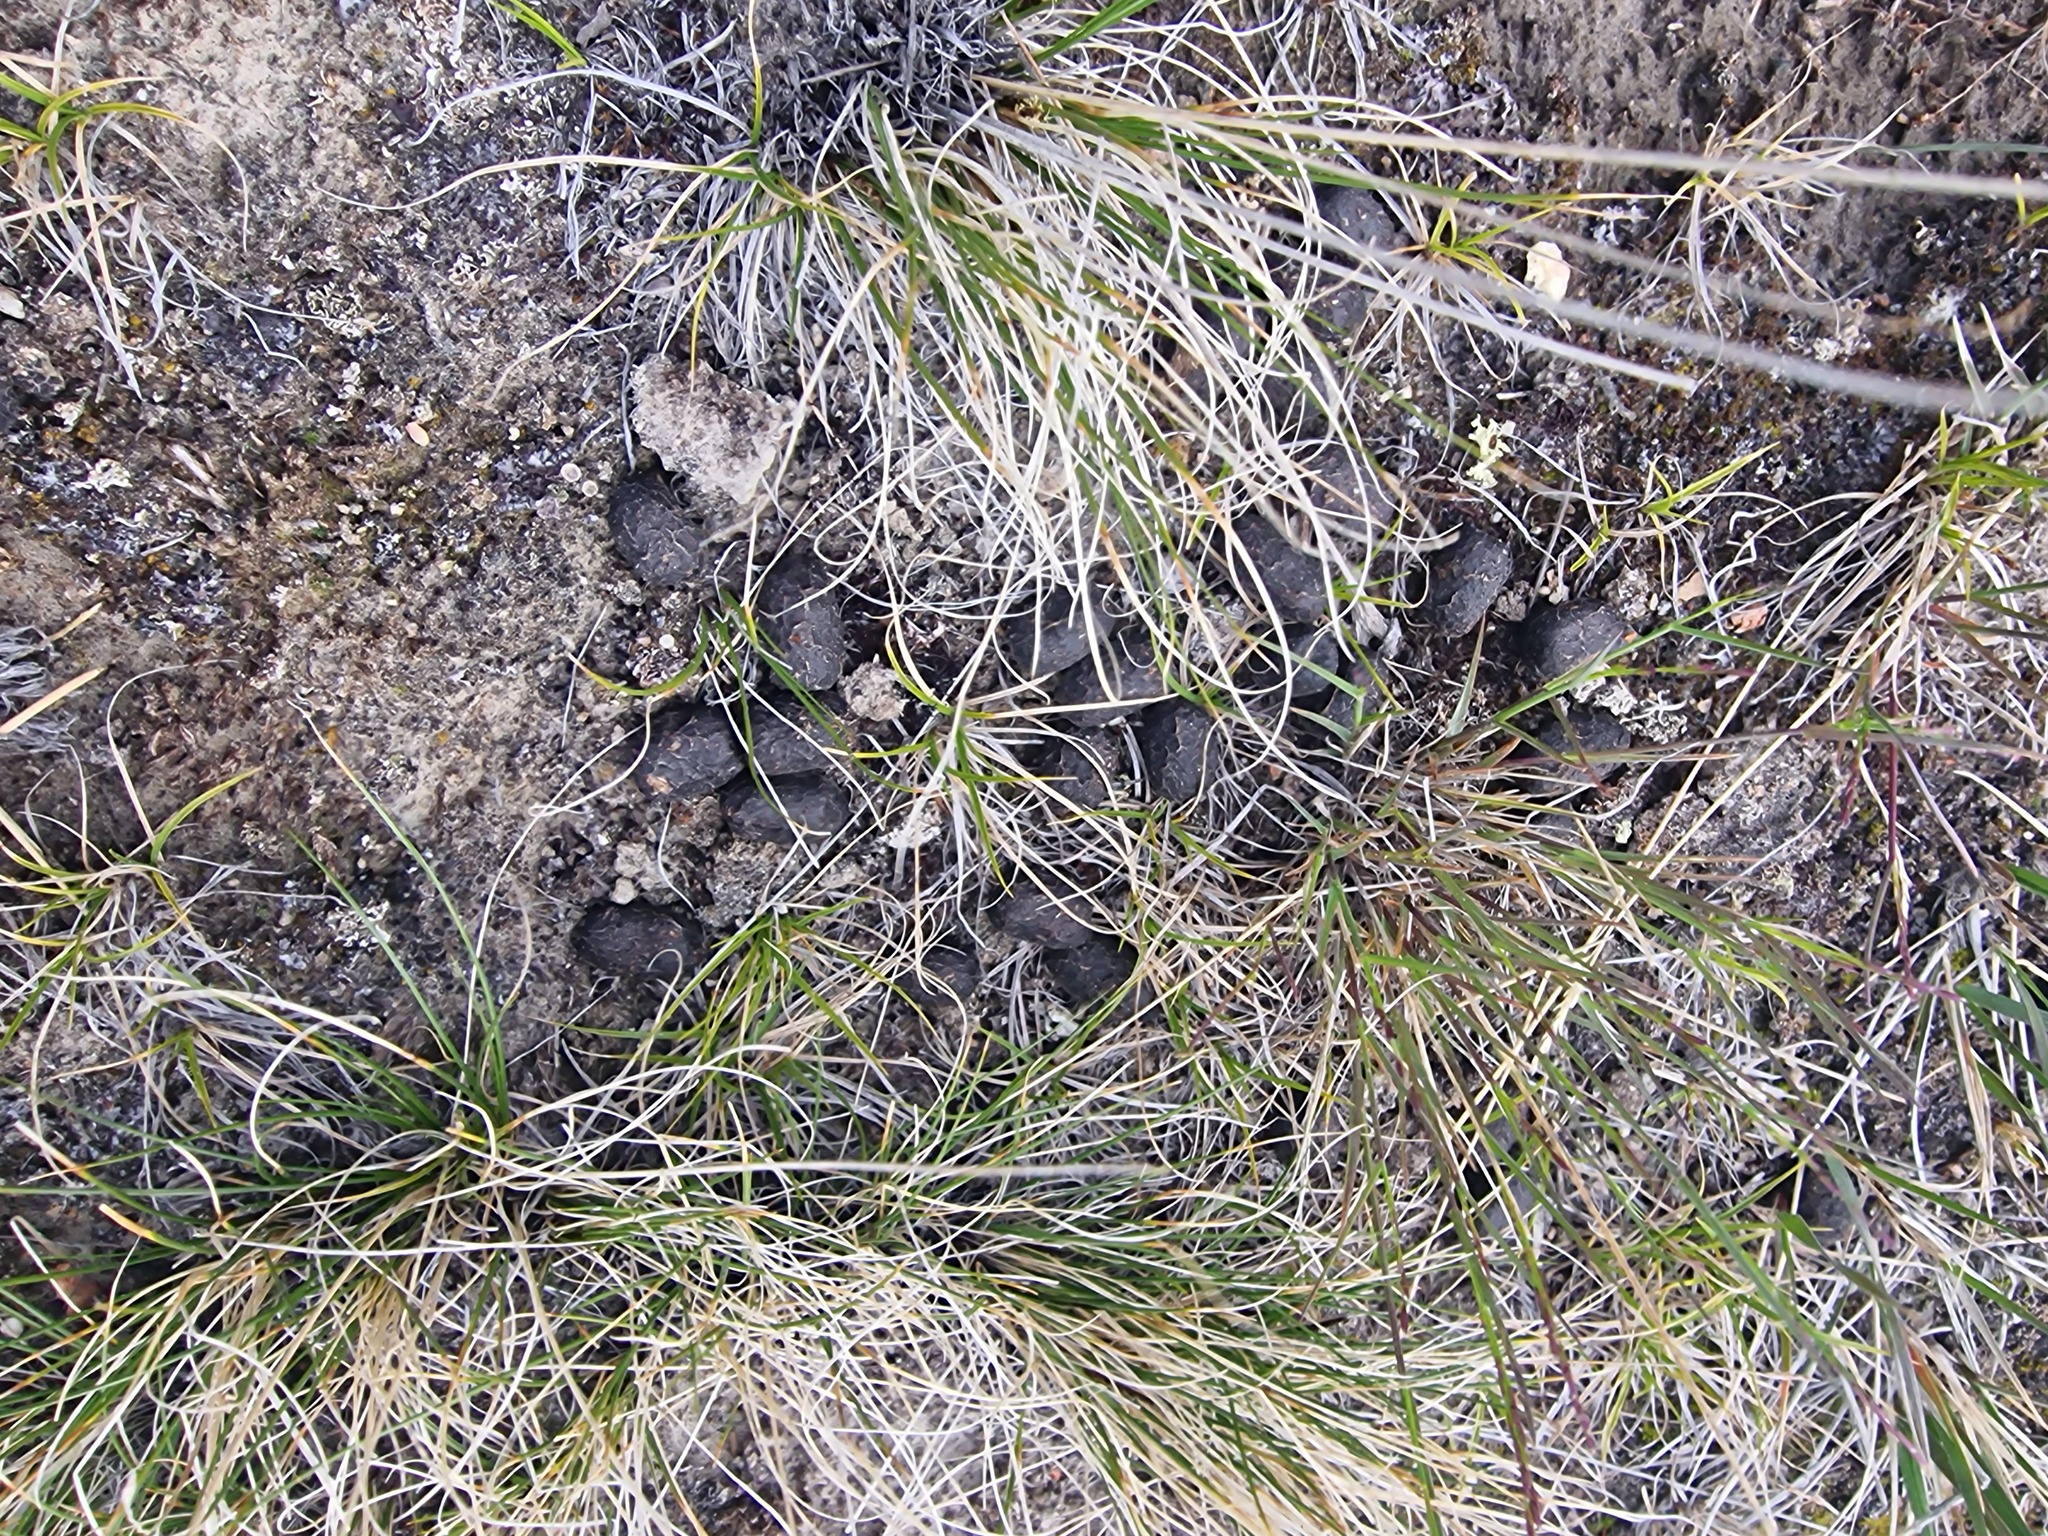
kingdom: Animalia
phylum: Chordata
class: Mammalia
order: Artiodactyla
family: Cervidae
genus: Rangifer
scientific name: Rangifer tarandus
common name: Reindeer
